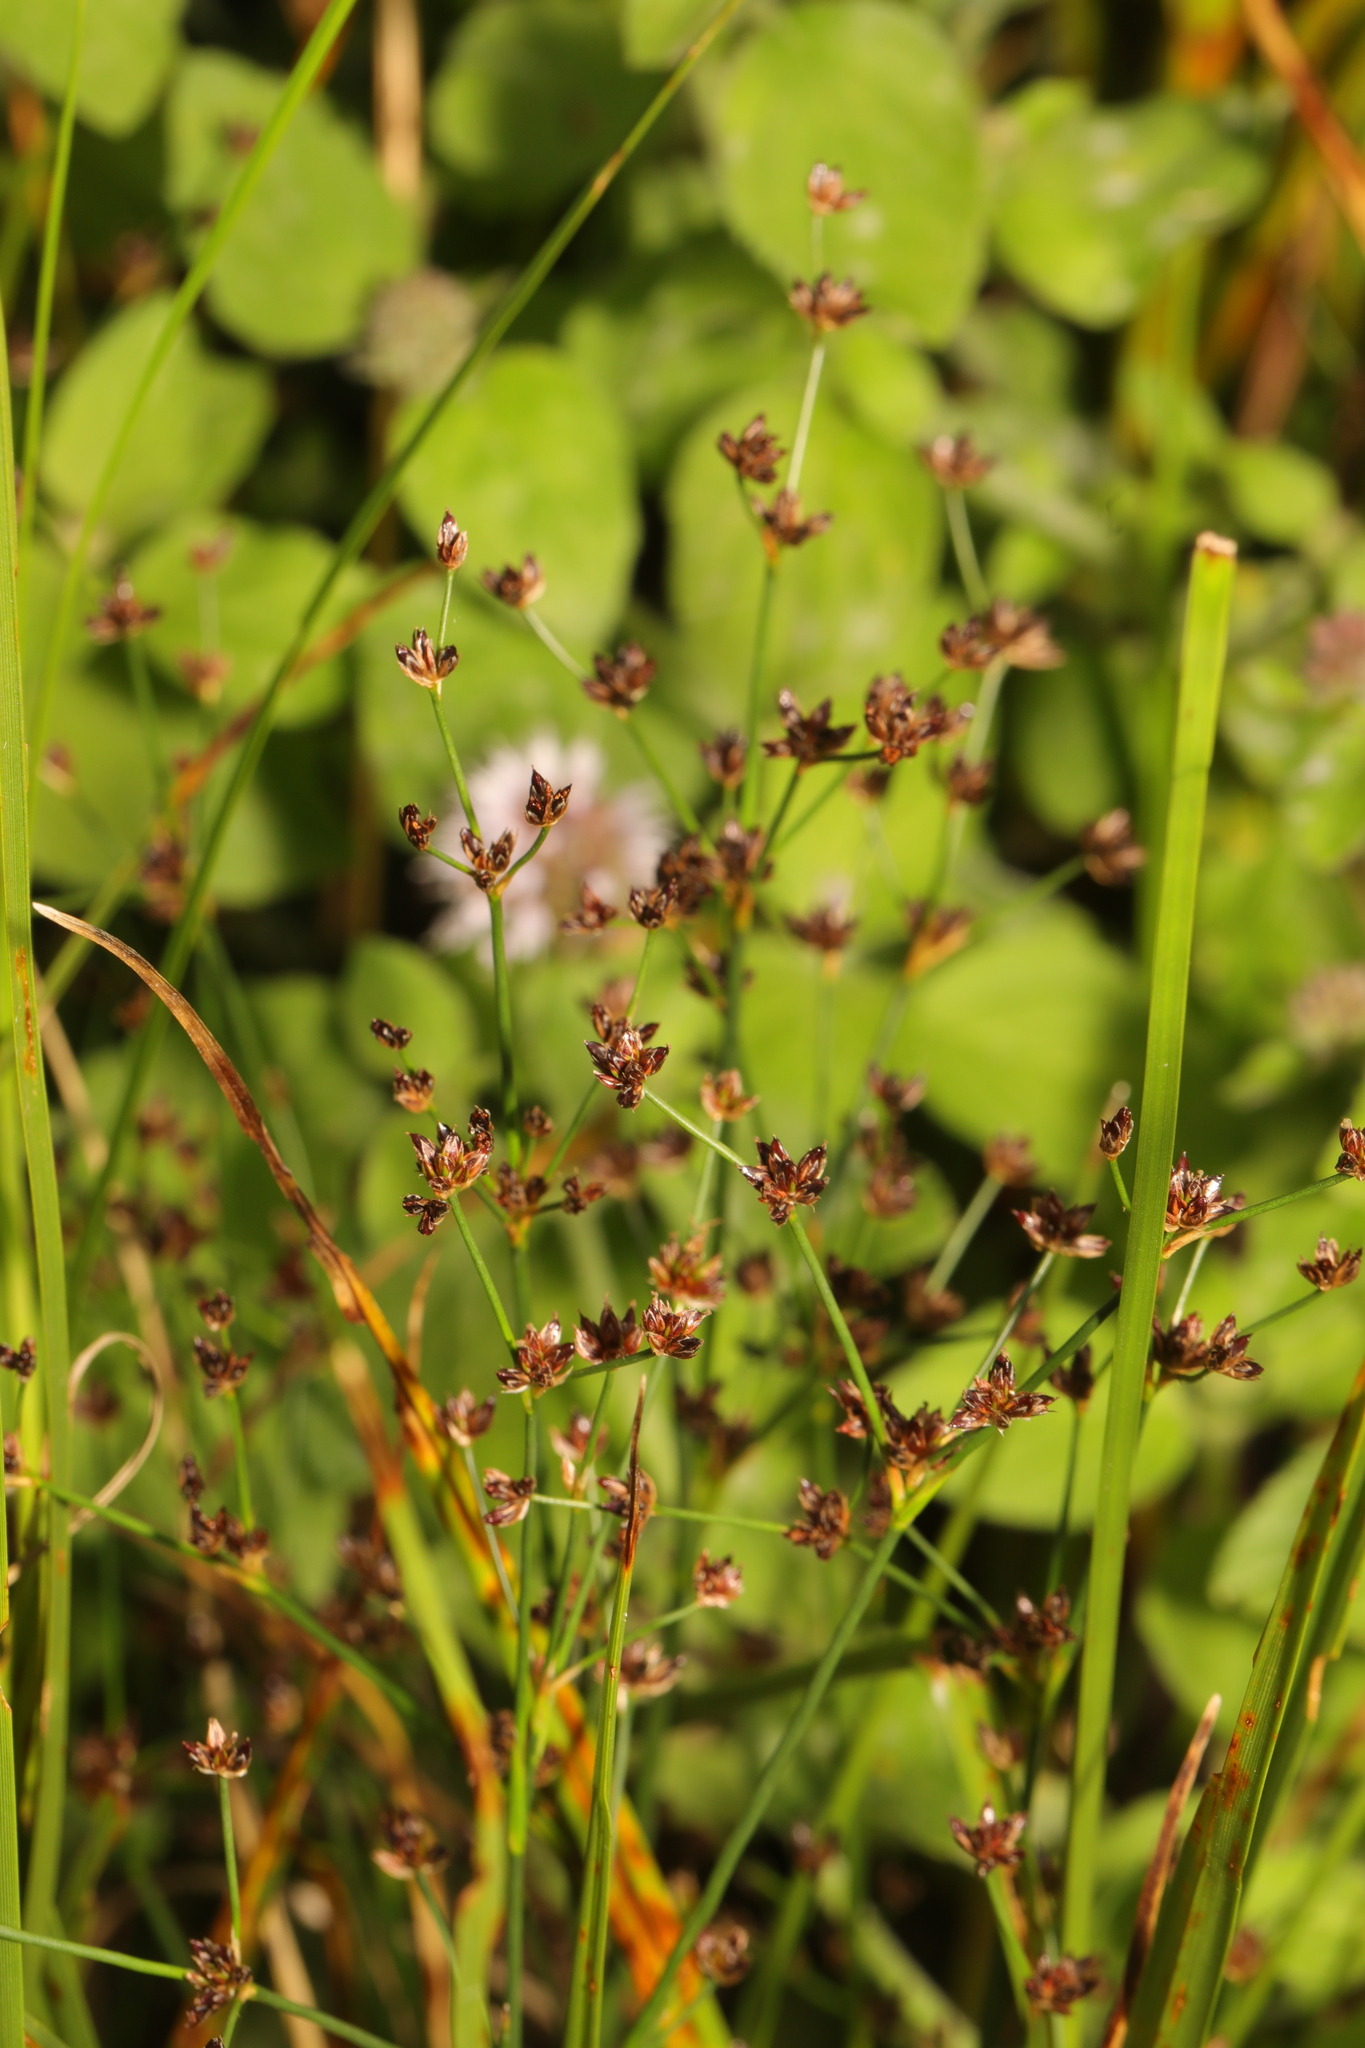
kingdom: Plantae
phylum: Tracheophyta
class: Liliopsida
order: Poales
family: Juncaceae
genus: Juncus
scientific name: Juncus articulatus
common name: Jointed rush
